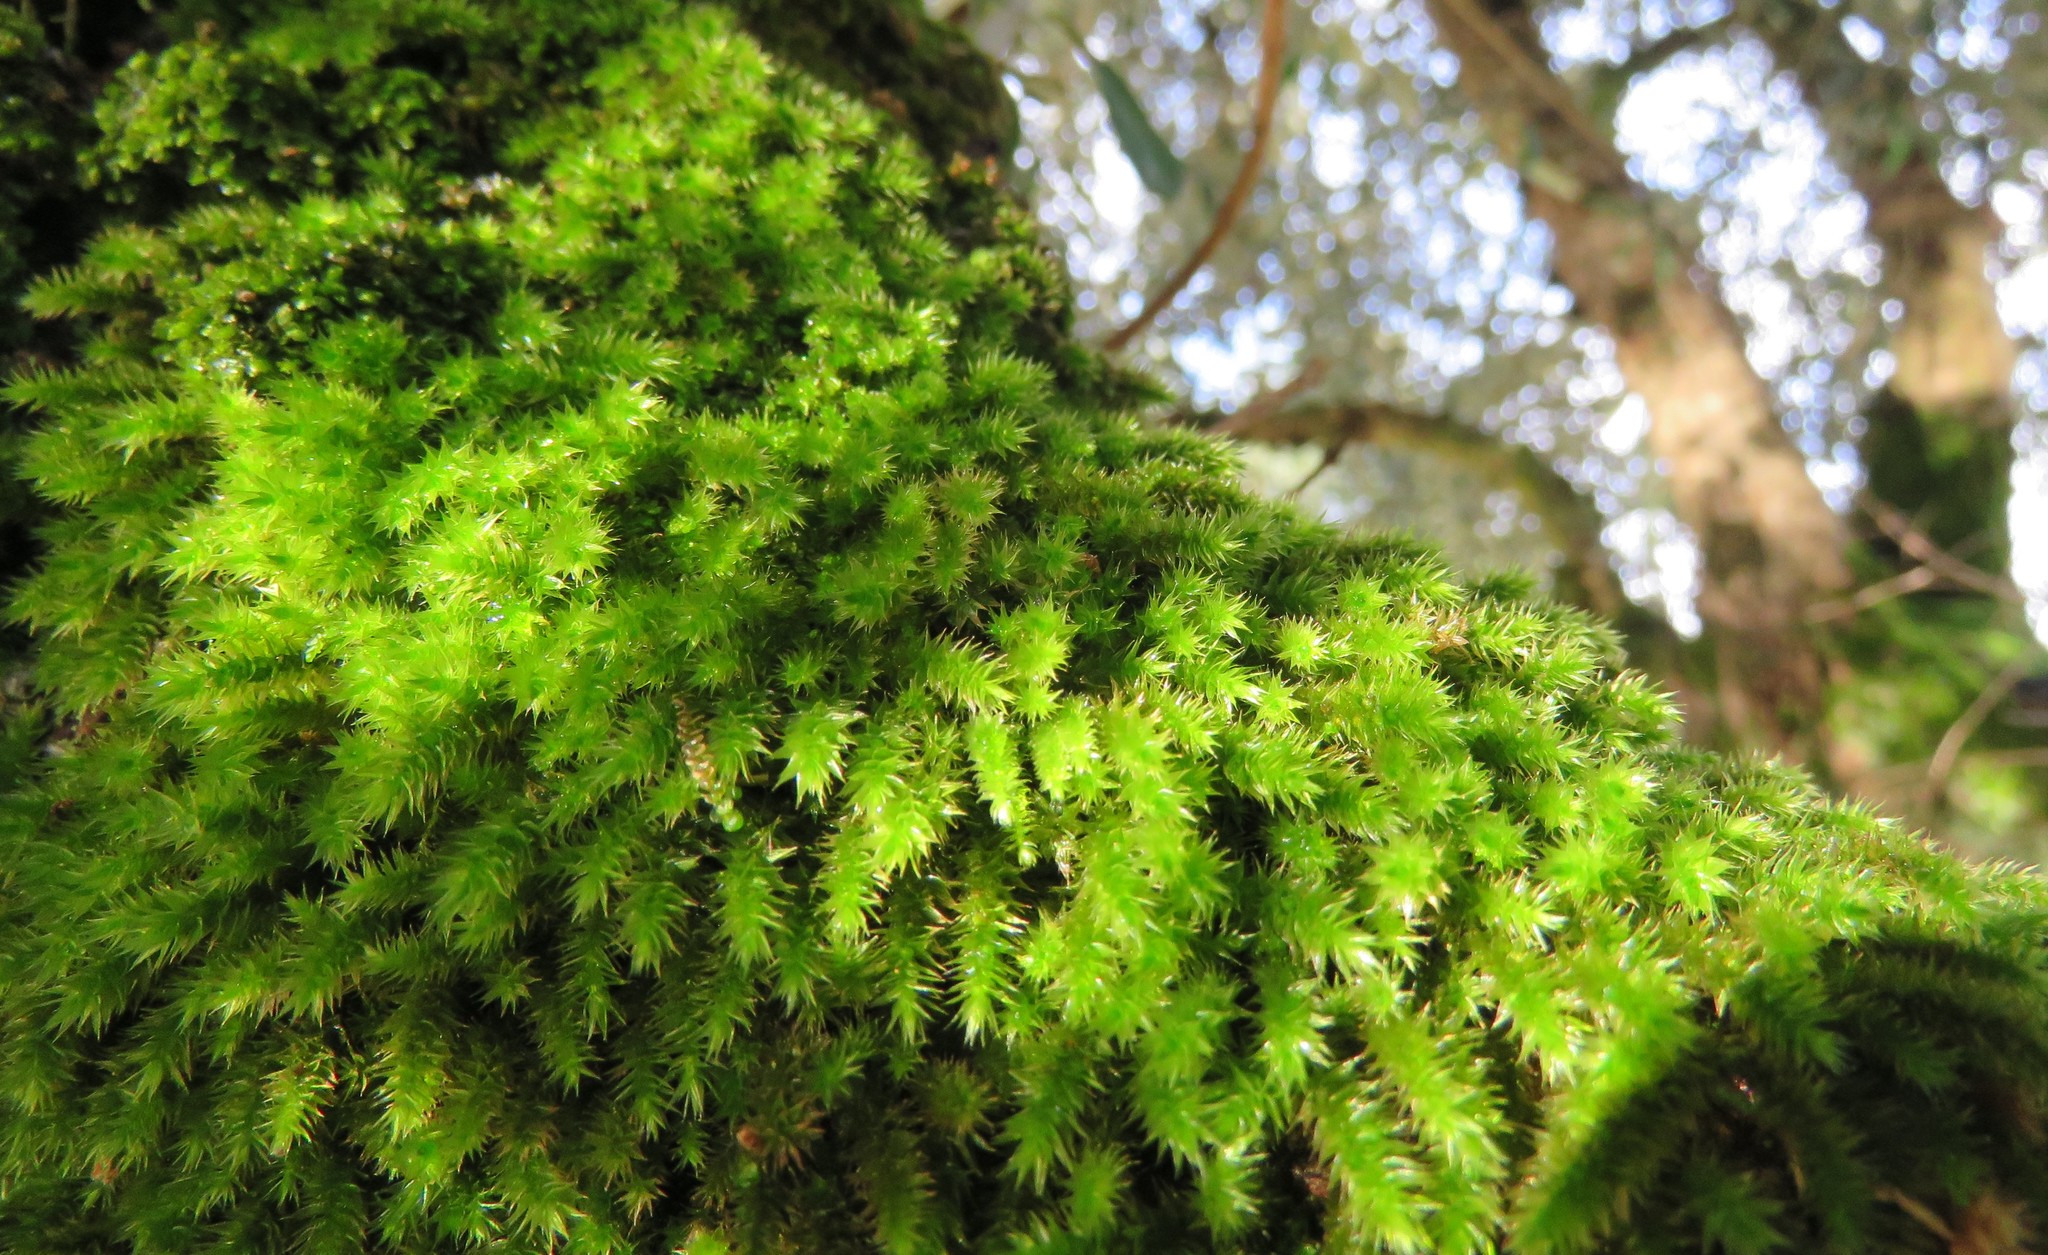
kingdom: Plantae
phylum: Bryophyta
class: Bryopsida
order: Hypnales
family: Leucodontaceae
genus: Leucodon
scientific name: Leucodon sciuroides
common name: Squirrel-tail moss
